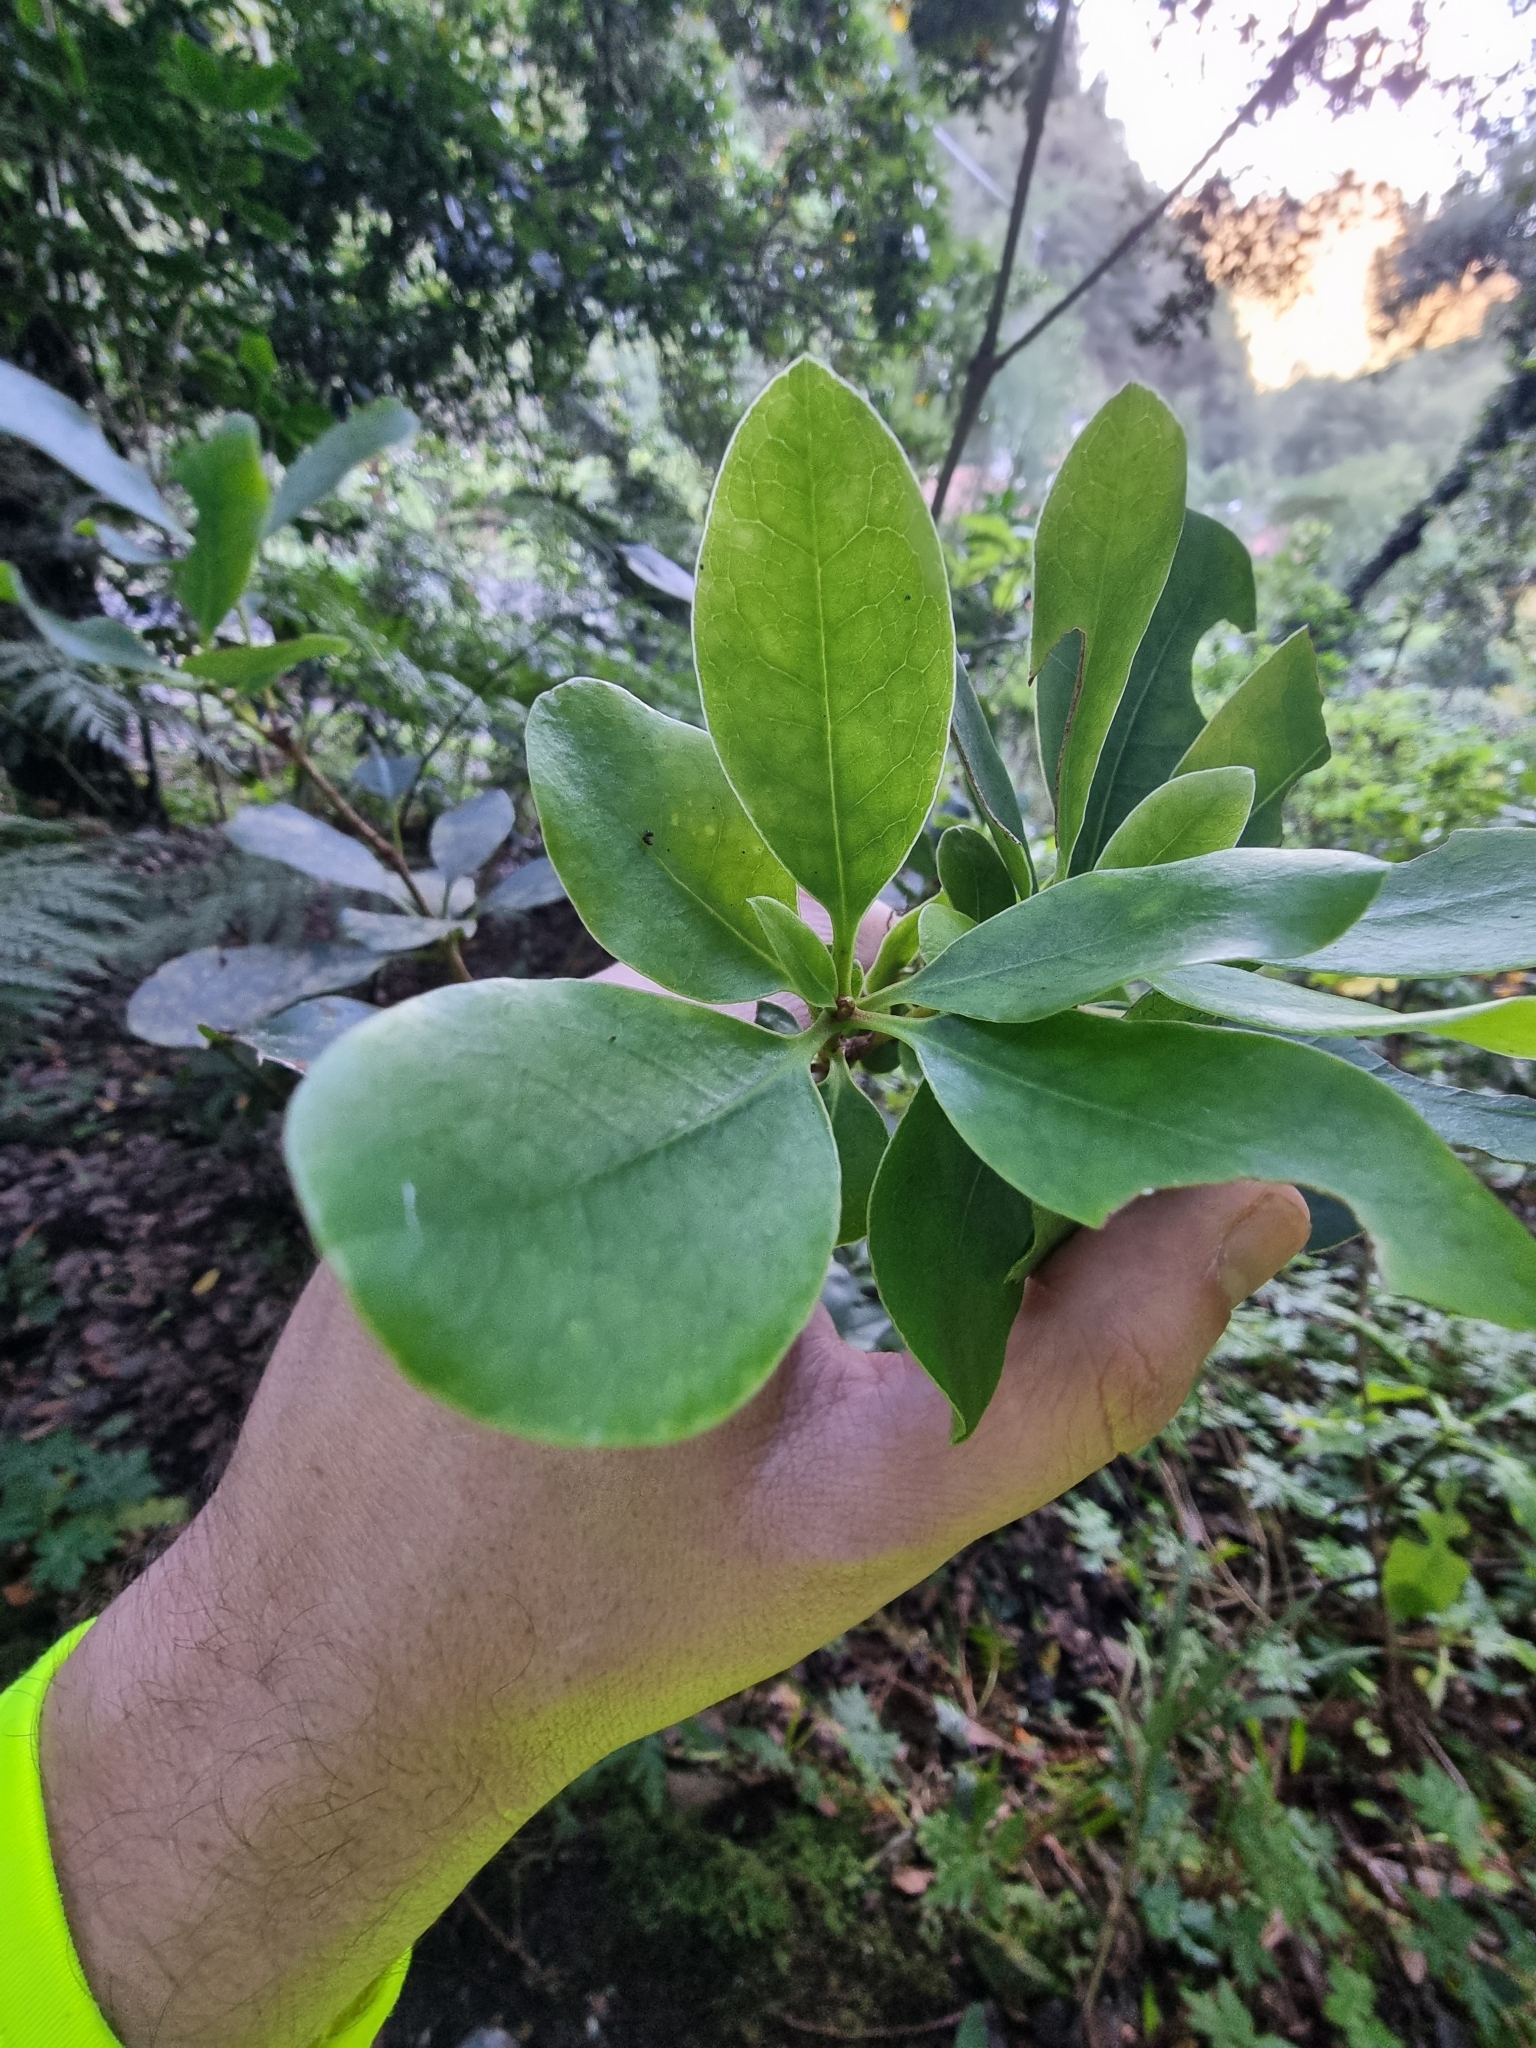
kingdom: Plantae
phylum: Tracheophyta
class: Magnoliopsida
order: Apiales
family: Pittosporaceae
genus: Pittosporum
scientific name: Pittosporum coriaceum
